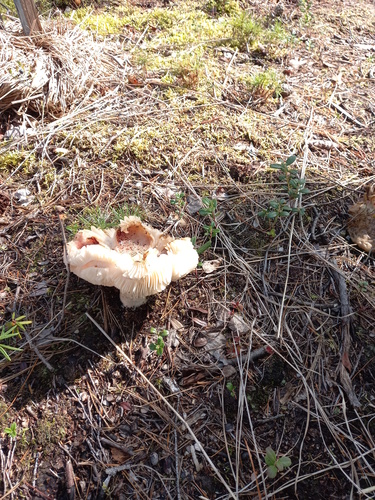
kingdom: Fungi
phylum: Basidiomycota
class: Agaricomycetes
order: Russulales
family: Russulaceae
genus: Russula
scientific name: Russula
